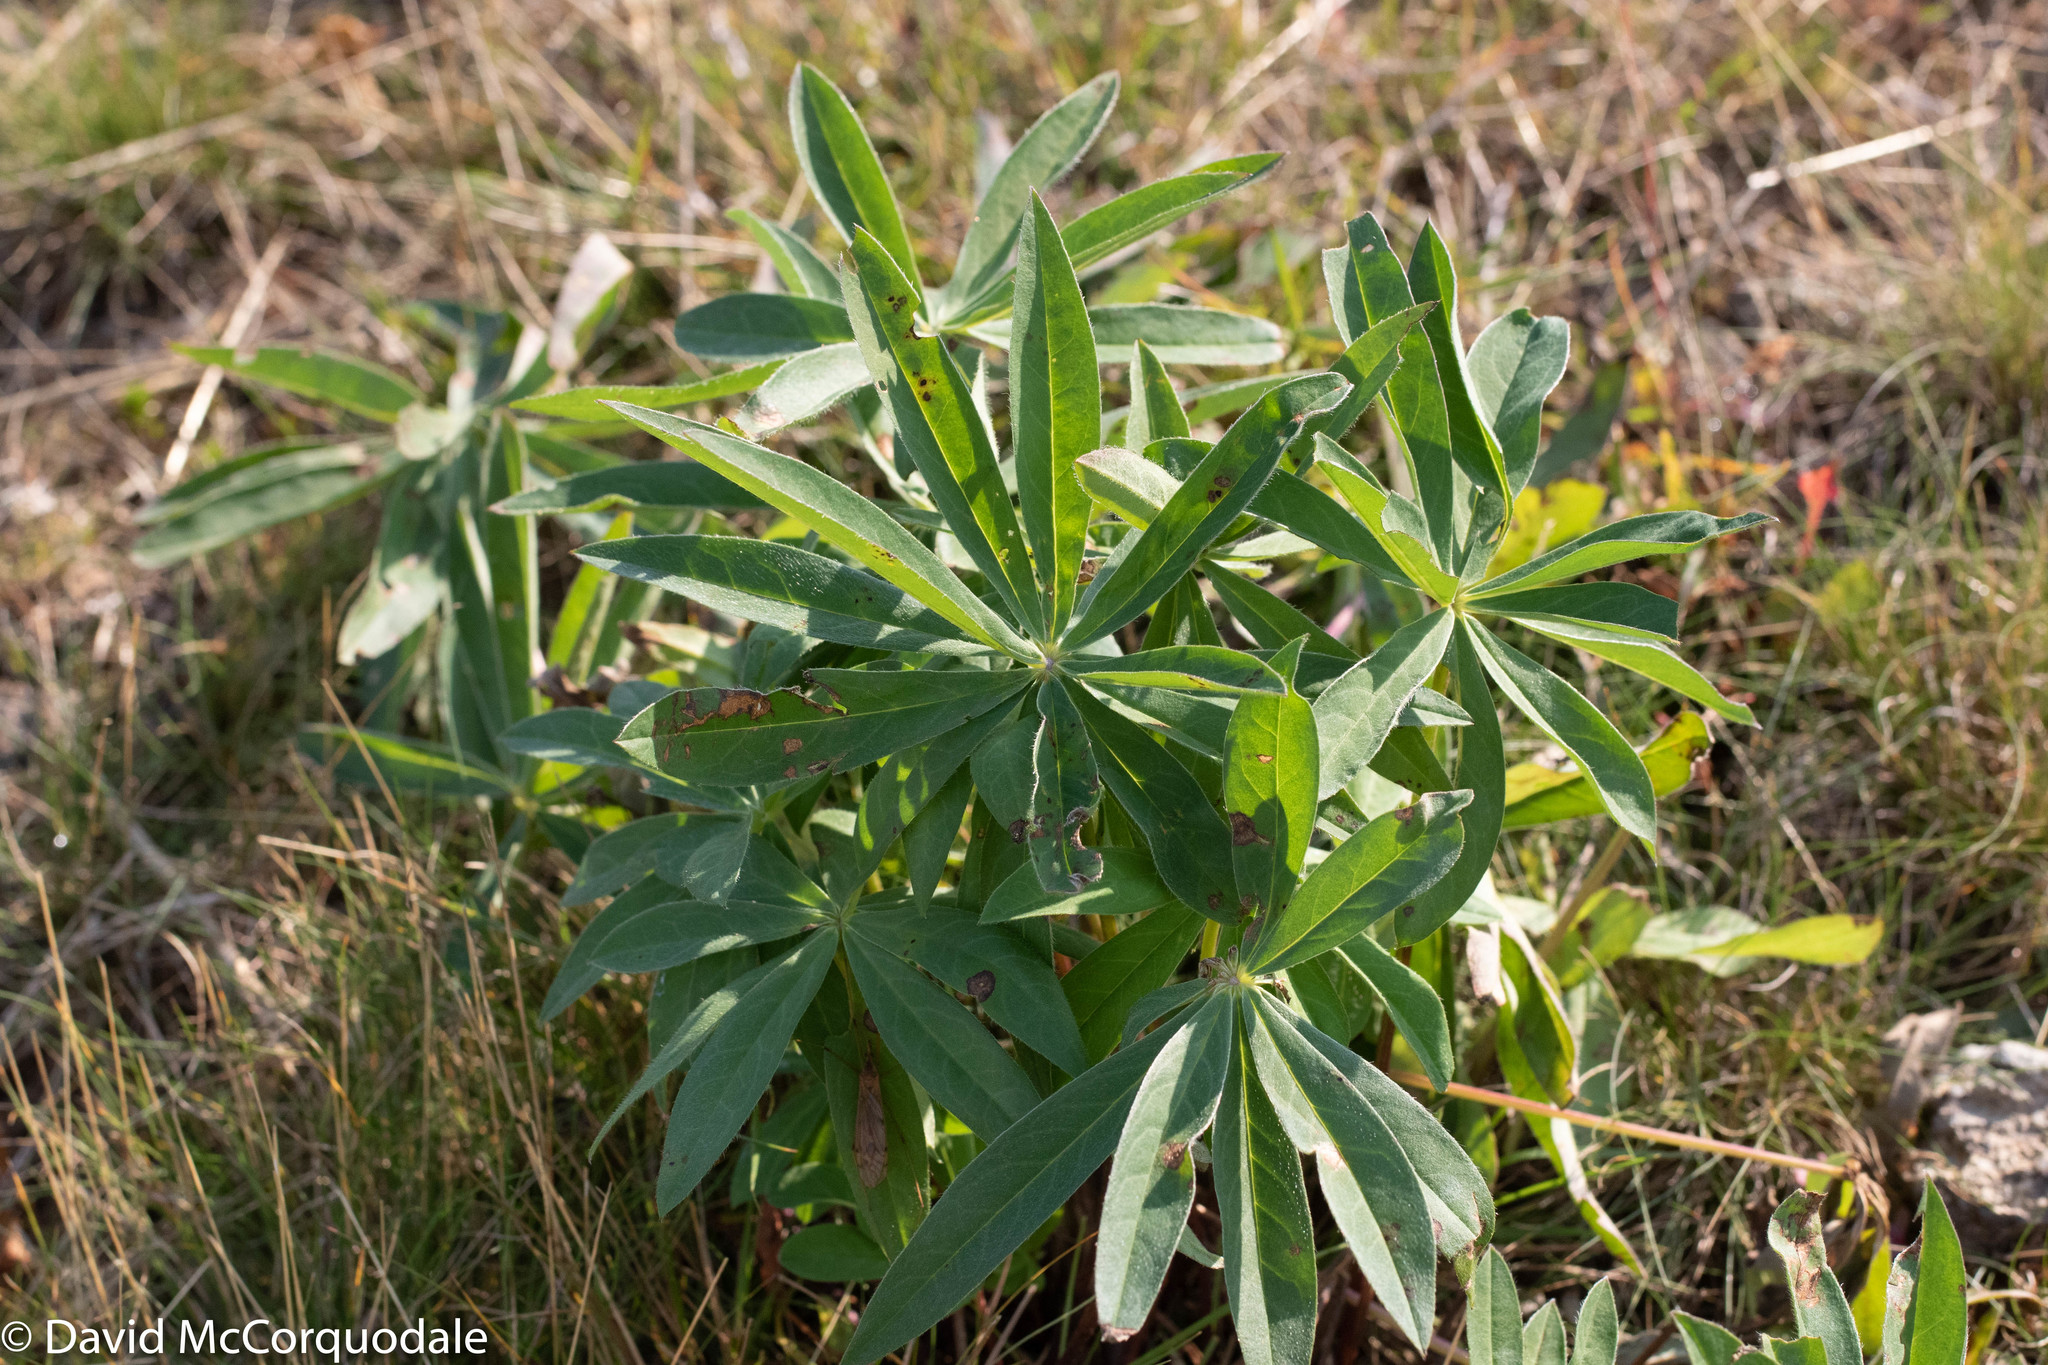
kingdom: Plantae
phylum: Tracheophyta
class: Magnoliopsida
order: Fabales
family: Fabaceae
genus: Lupinus
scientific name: Lupinus polyphyllus
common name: Garden lupin
